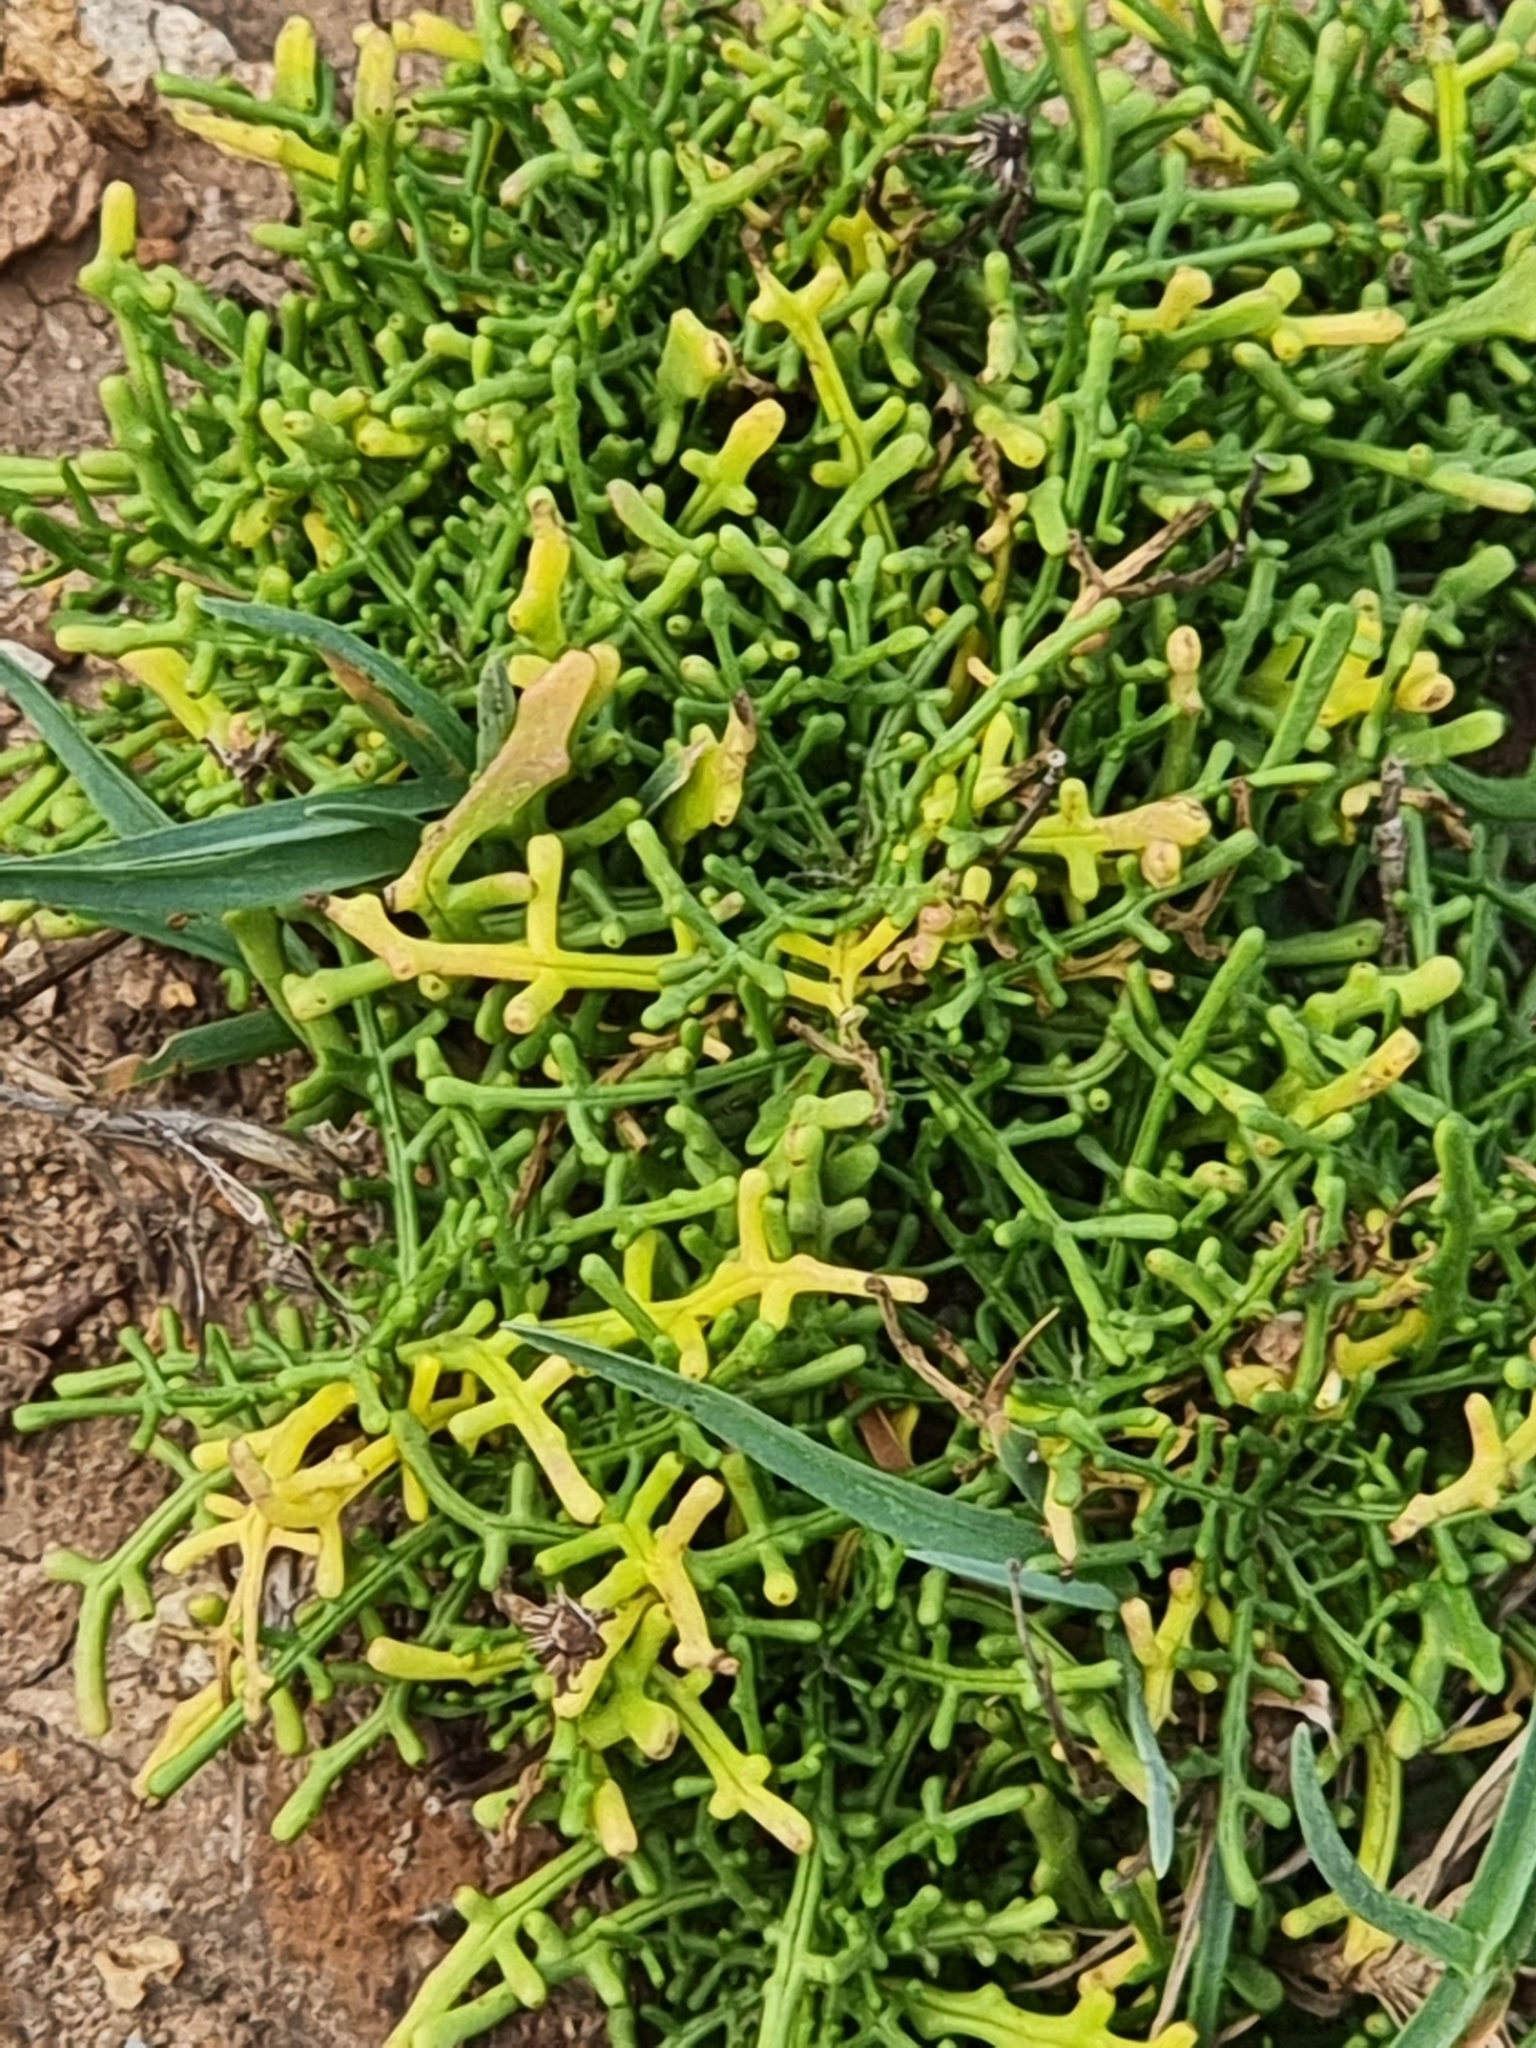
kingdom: Plantae
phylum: Tracheophyta
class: Magnoliopsida
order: Asterales
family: Asteraceae
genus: Tolpis
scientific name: Tolpis succulenta
